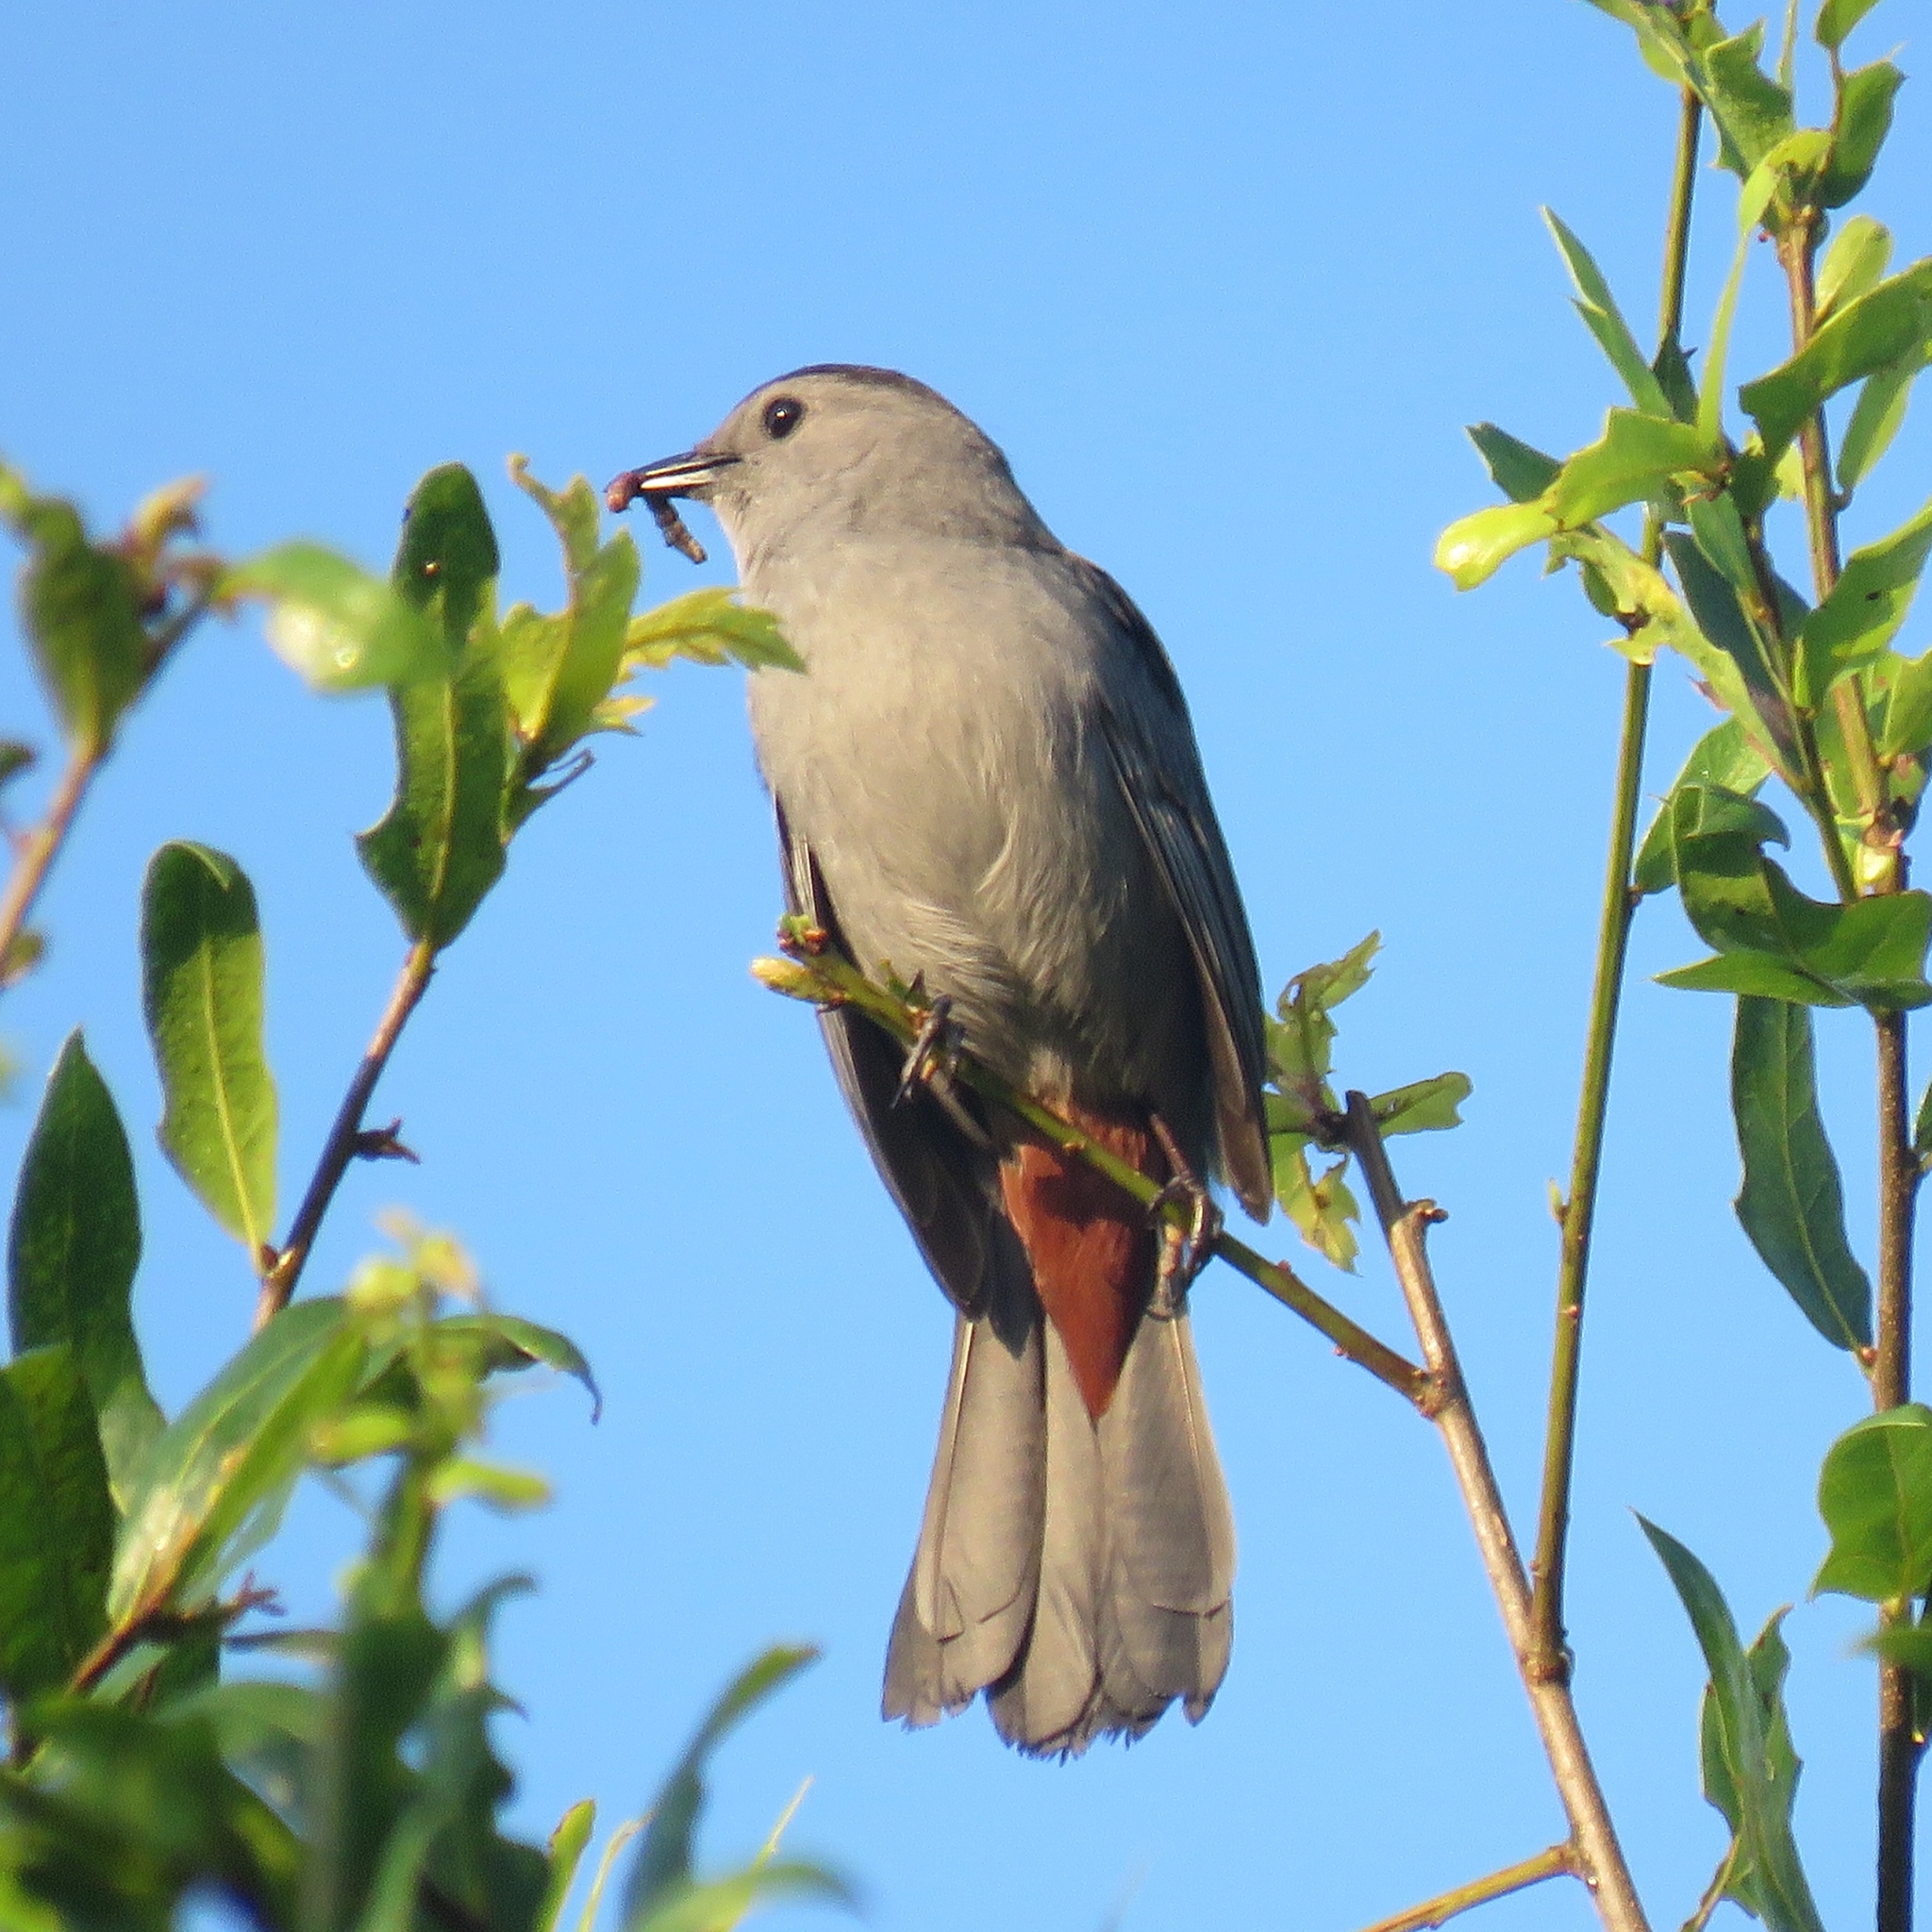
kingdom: Animalia
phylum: Chordata
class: Aves
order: Passeriformes
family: Mimidae
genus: Dumetella
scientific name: Dumetella carolinensis
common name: Gray catbird
